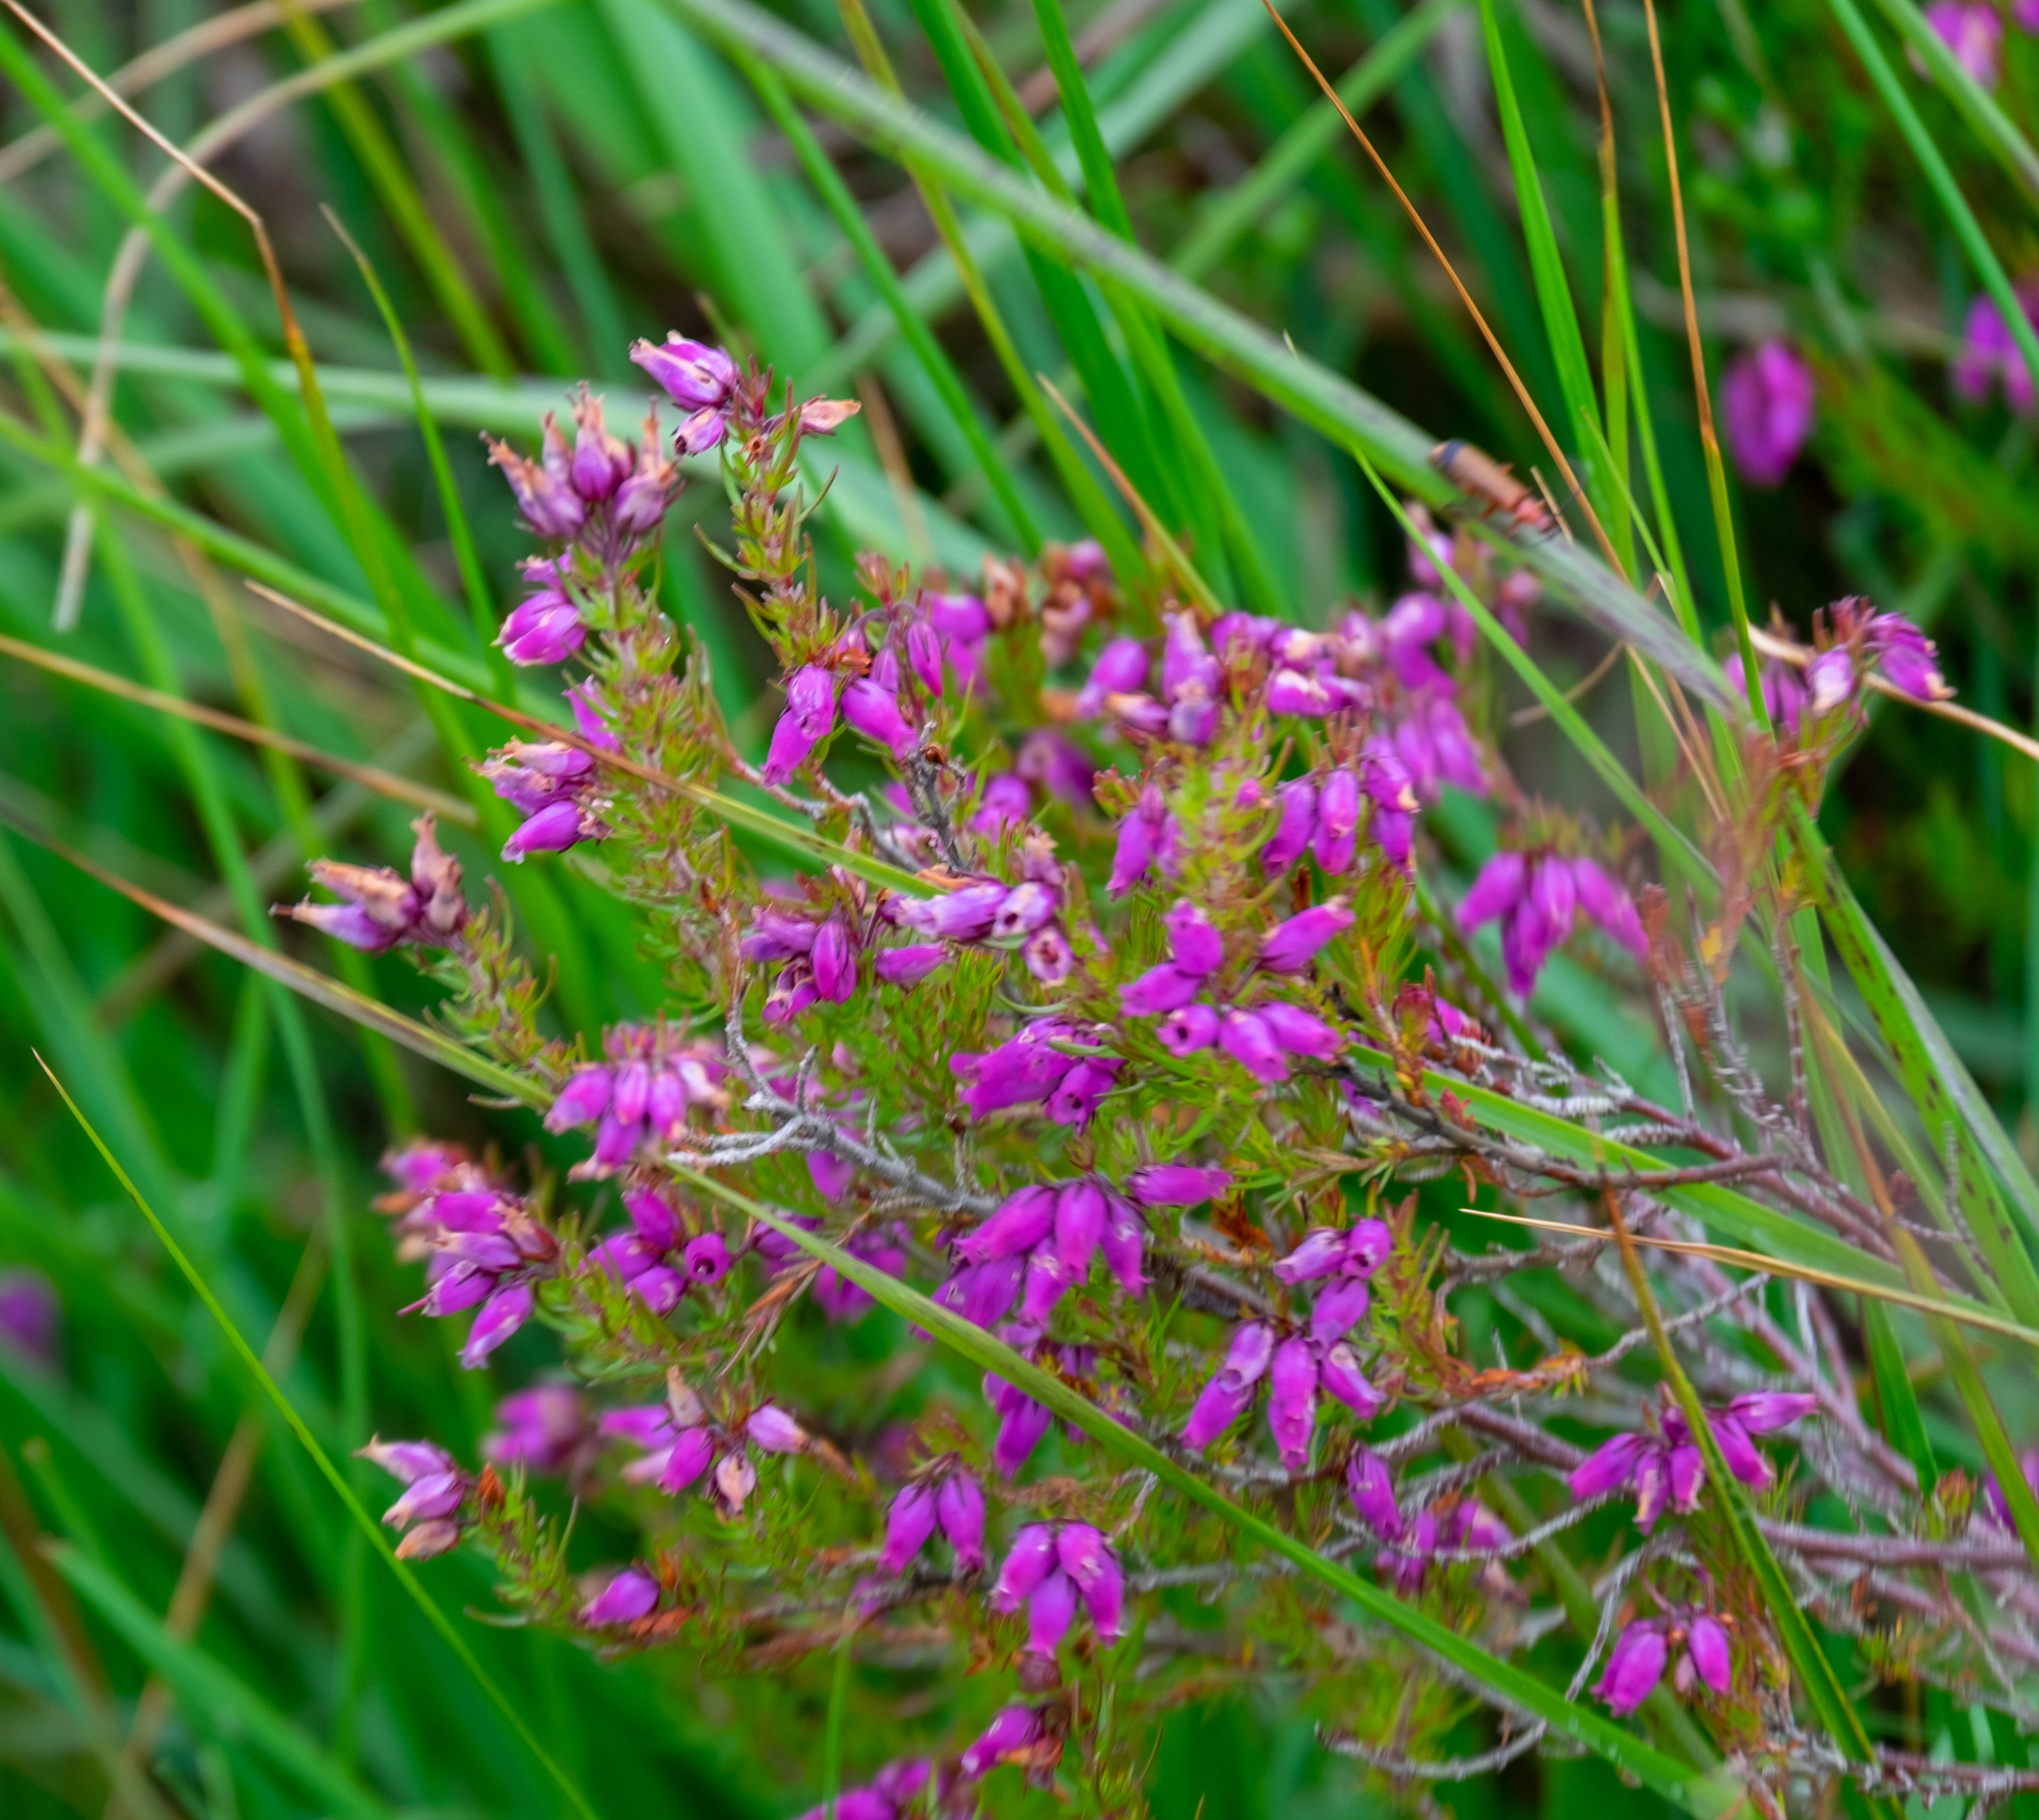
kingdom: Plantae
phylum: Tracheophyta
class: Magnoliopsida
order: Ericales
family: Ericaceae
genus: Erica
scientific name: Erica cinerea
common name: Bell heather
